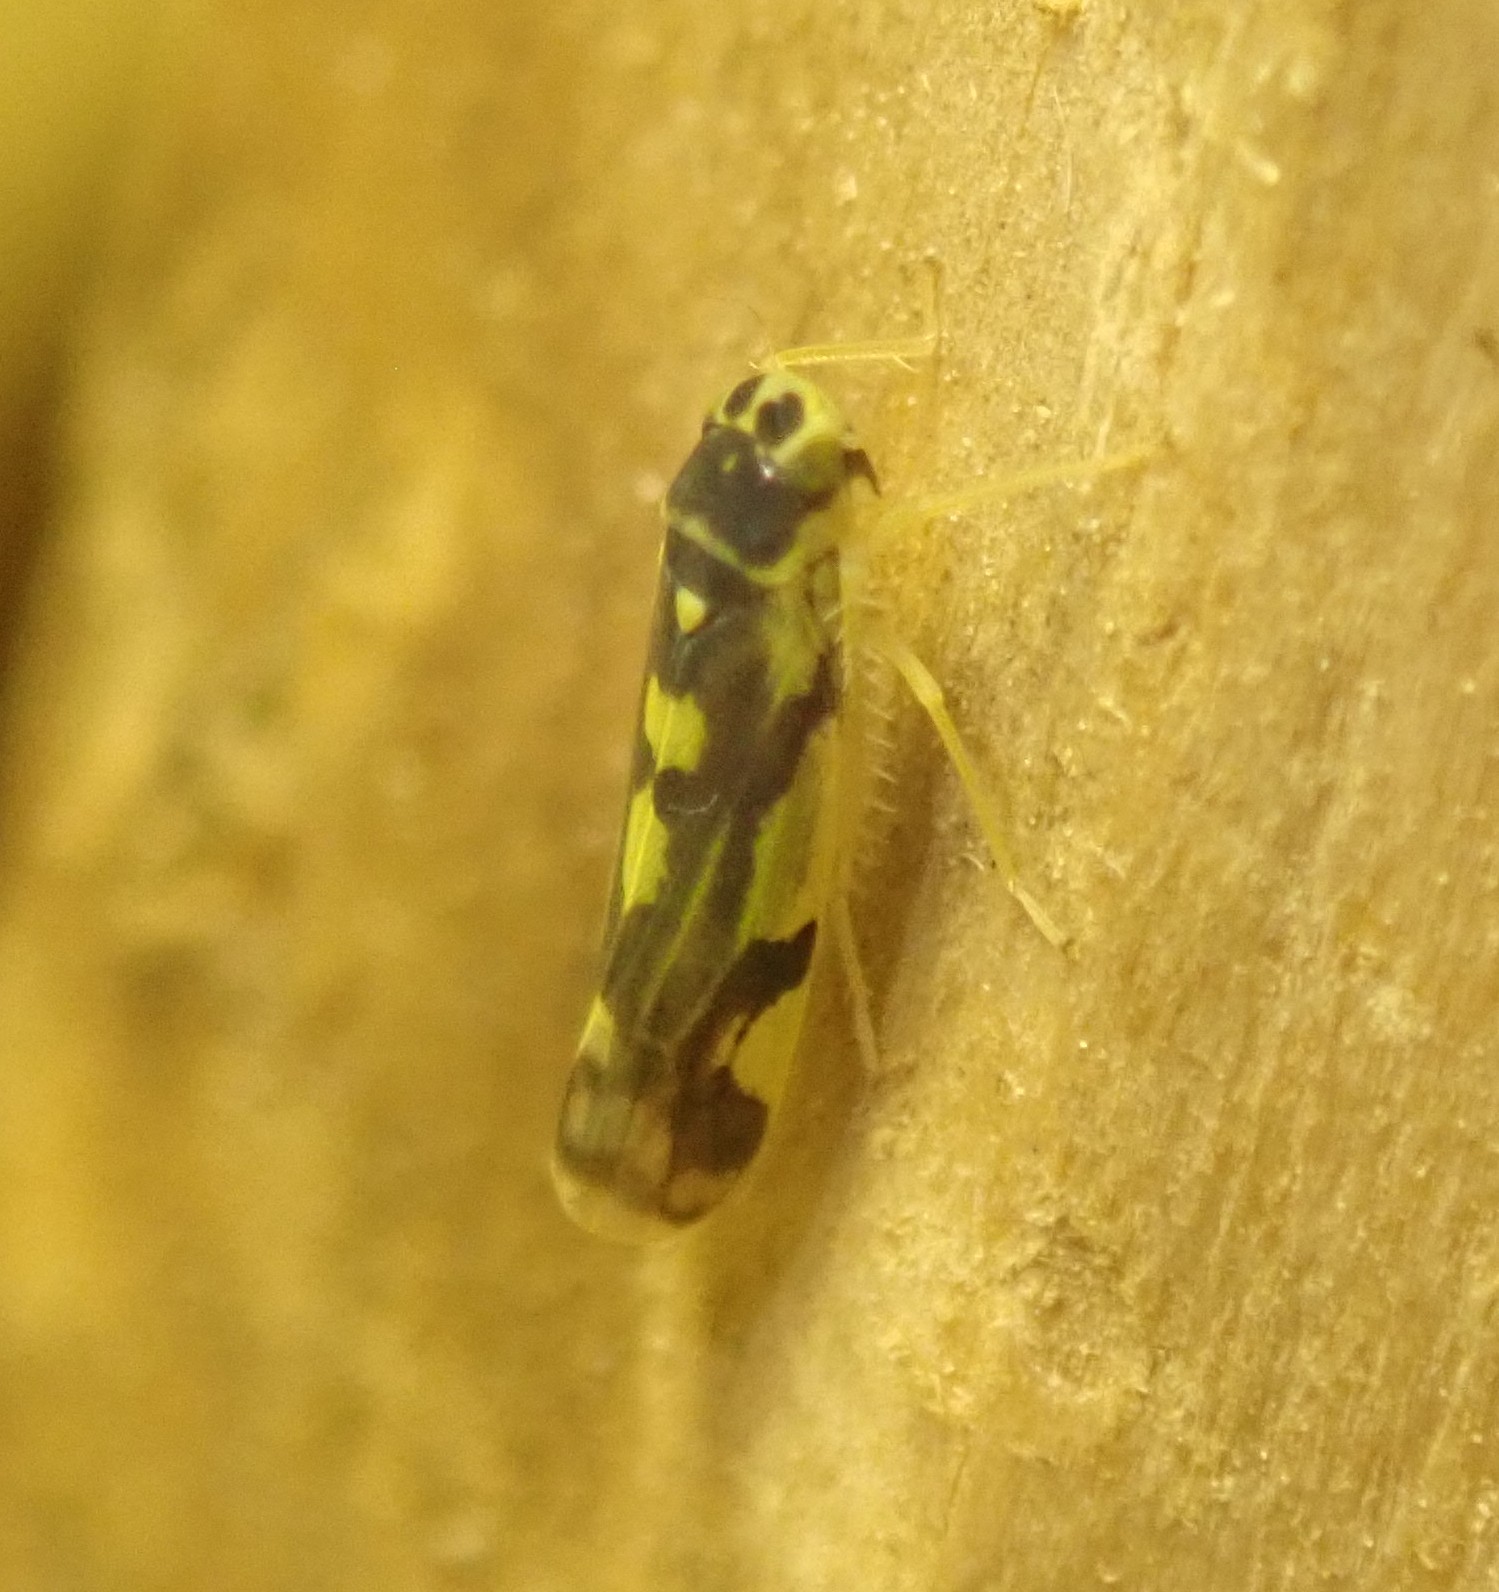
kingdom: Animalia
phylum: Arthropoda
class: Insecta
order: Hemiptera
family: Cicadellidae
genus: Eupteryx
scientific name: Eupteryx aurata
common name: Leafhopper
